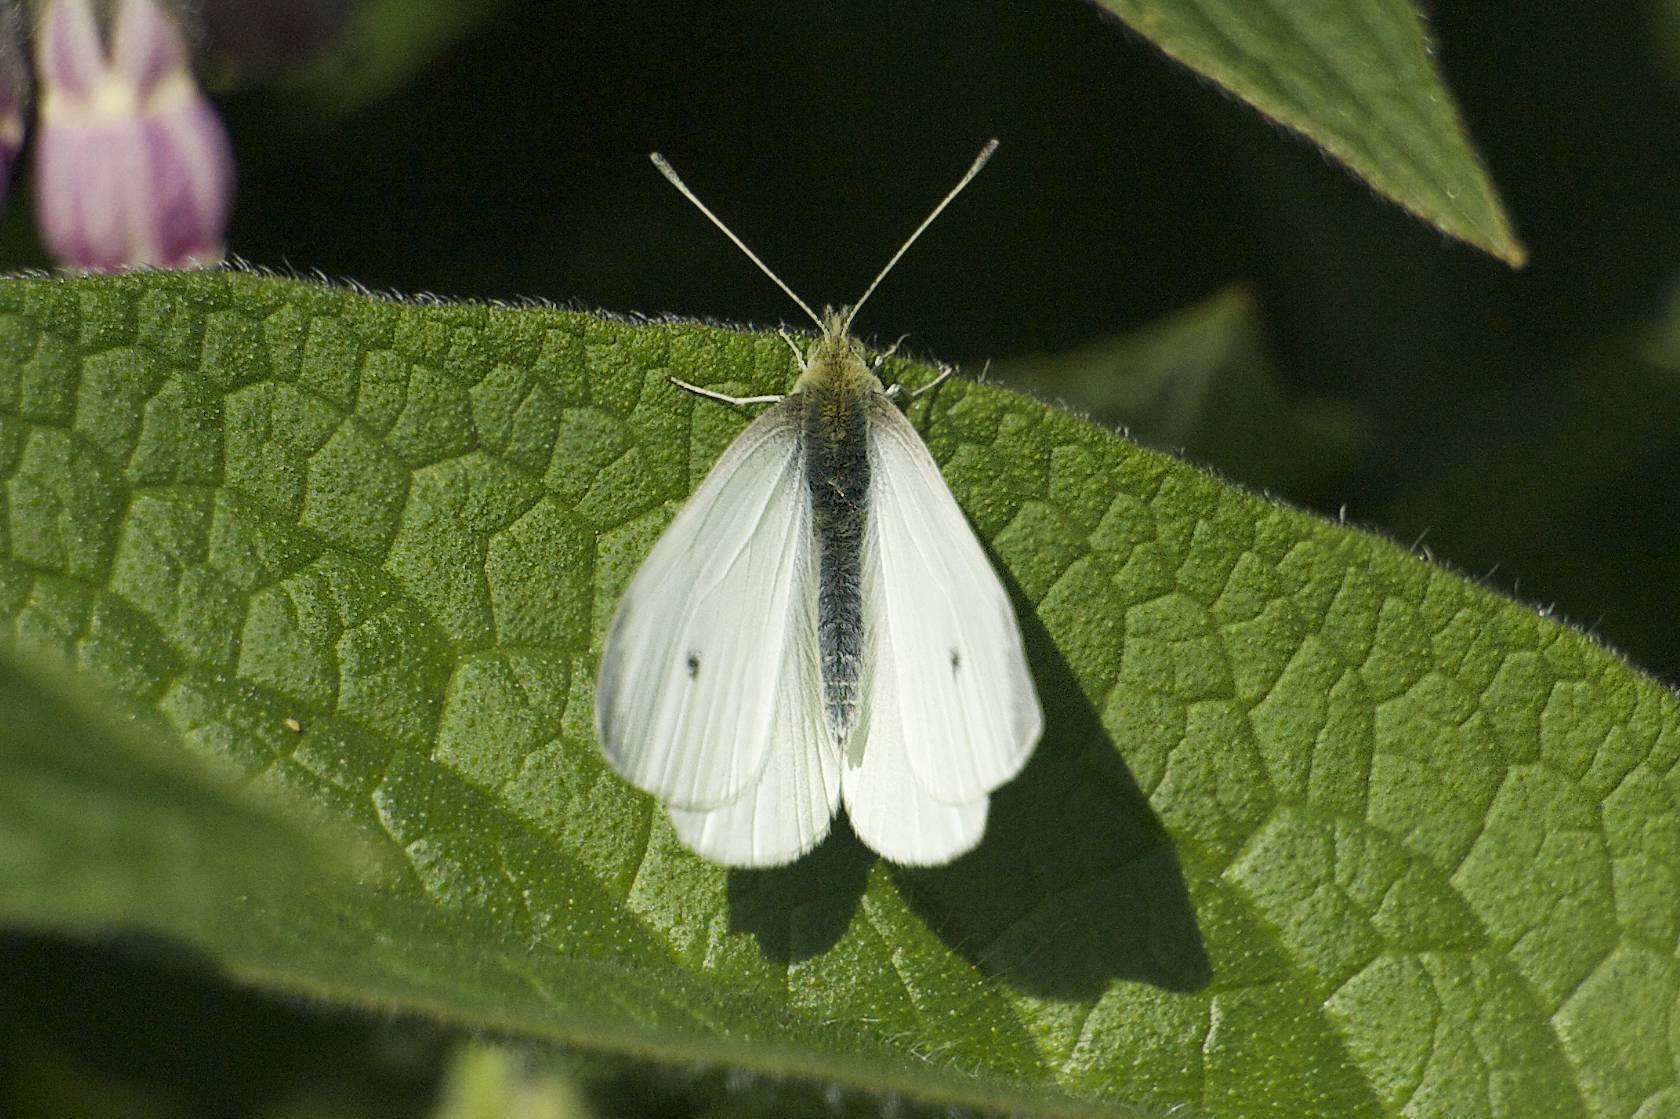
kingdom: Animalia
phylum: Arthropoda
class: Insecta
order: Lepidoptera
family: Pieridae
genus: Pieris
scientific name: Pieris rapae
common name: Small white
